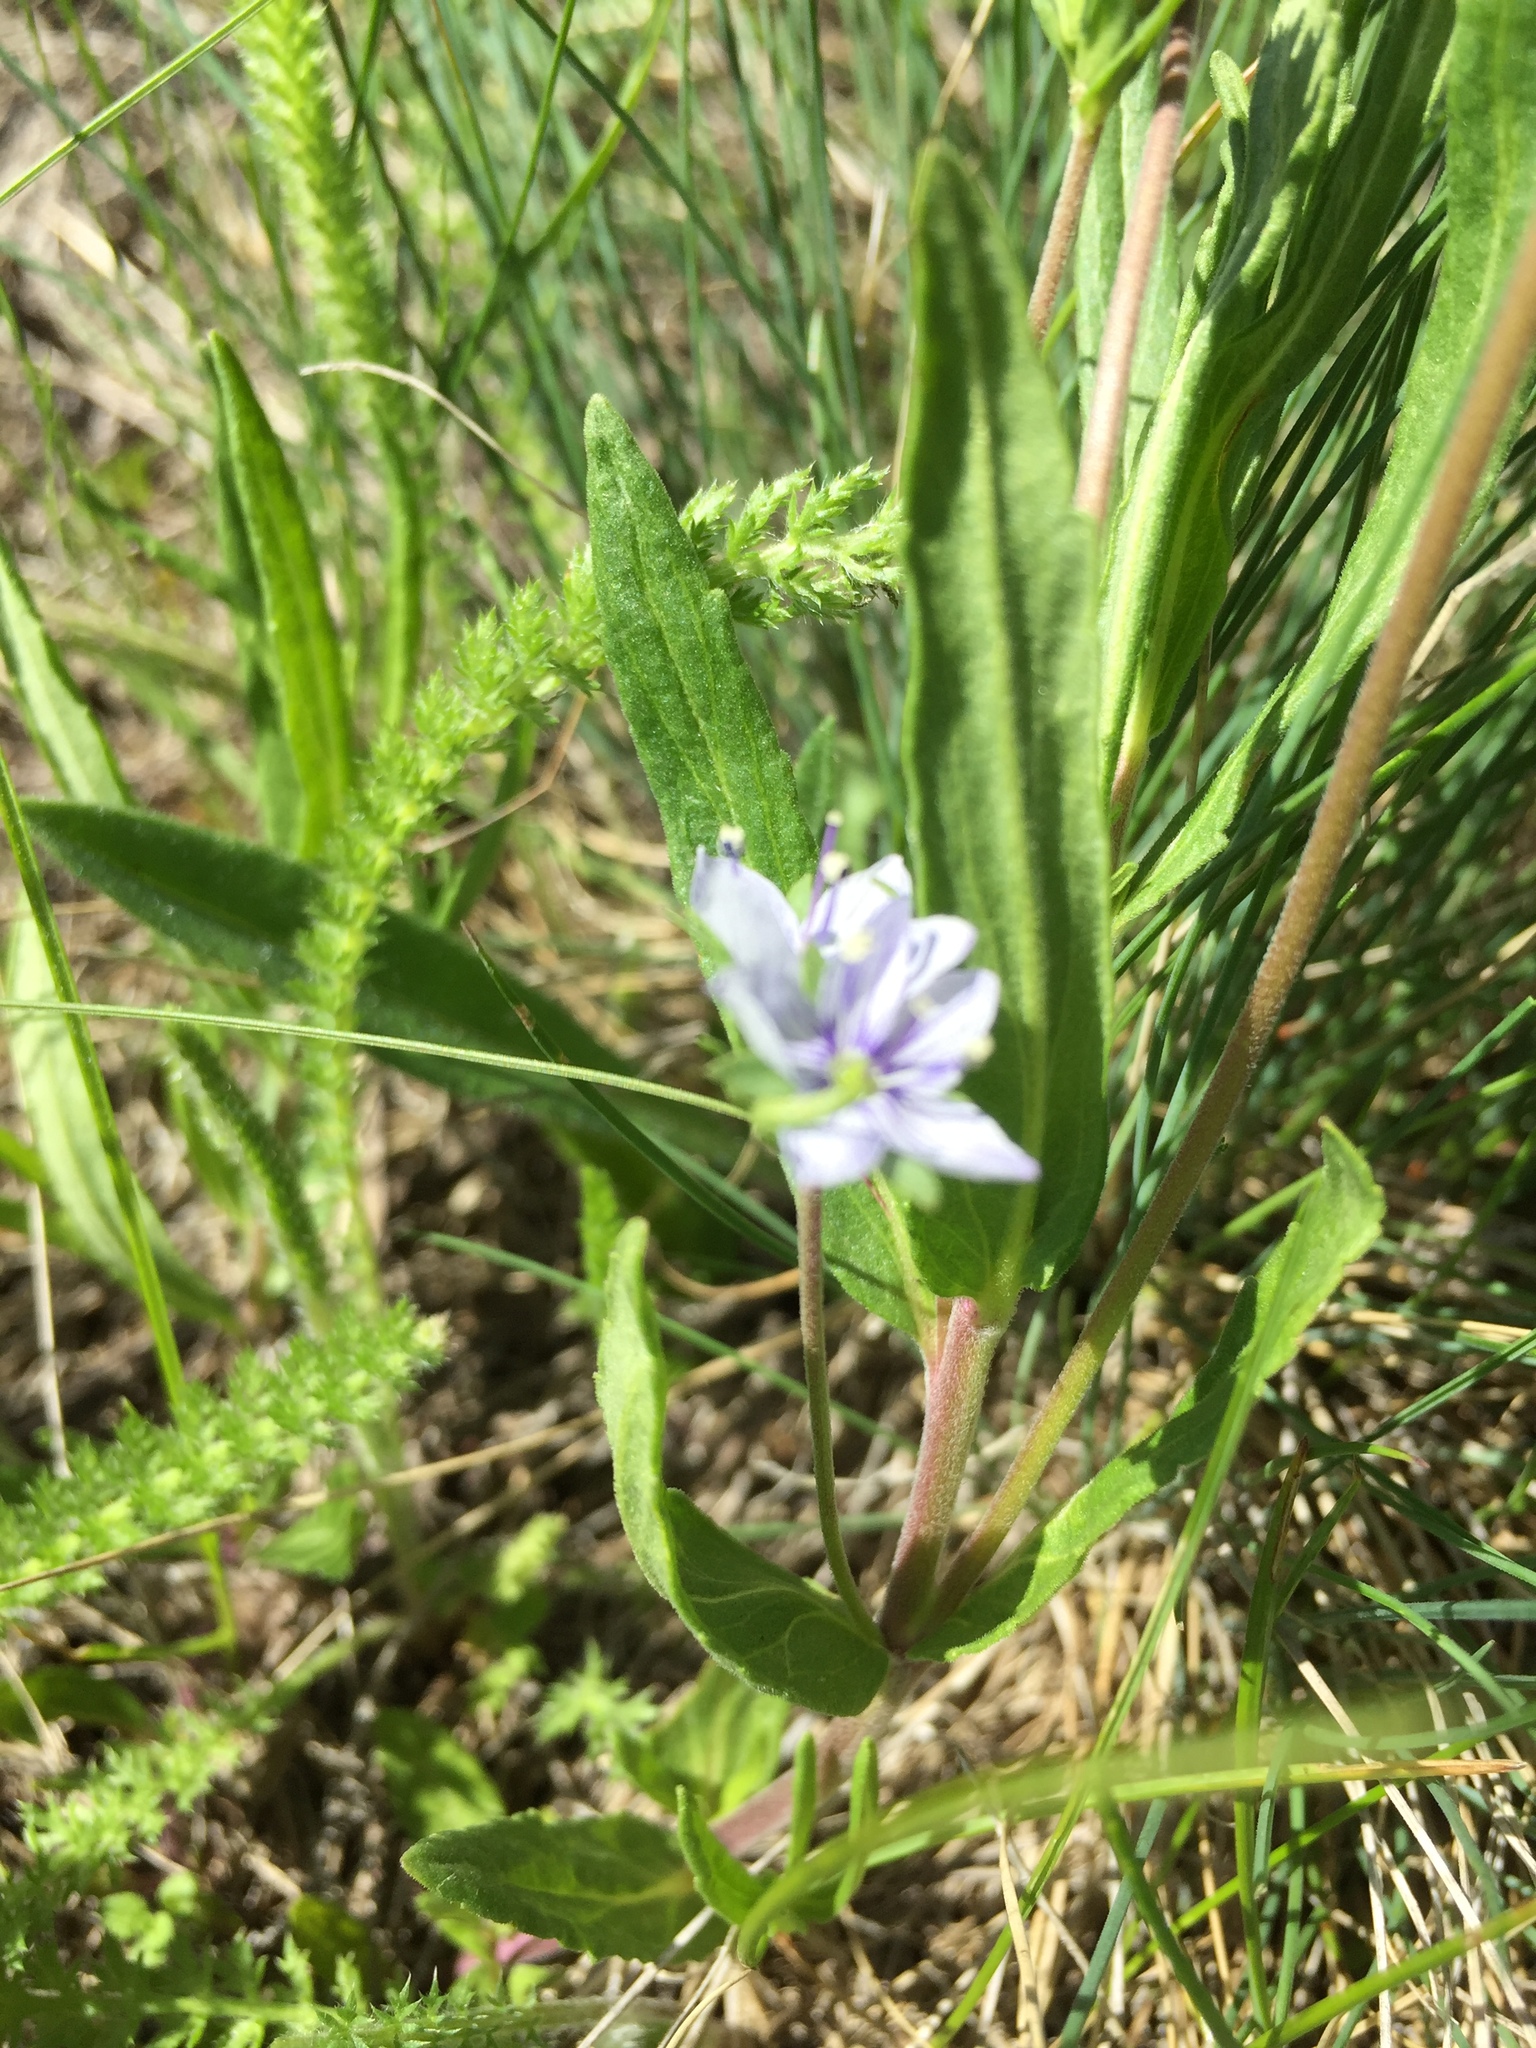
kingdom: Plantae
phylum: Tracheophyta
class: Magnoliopsida
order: Lamiales
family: Plantaginaceae
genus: Veronica
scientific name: Veronica prostrata
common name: Prostrate speedwell
